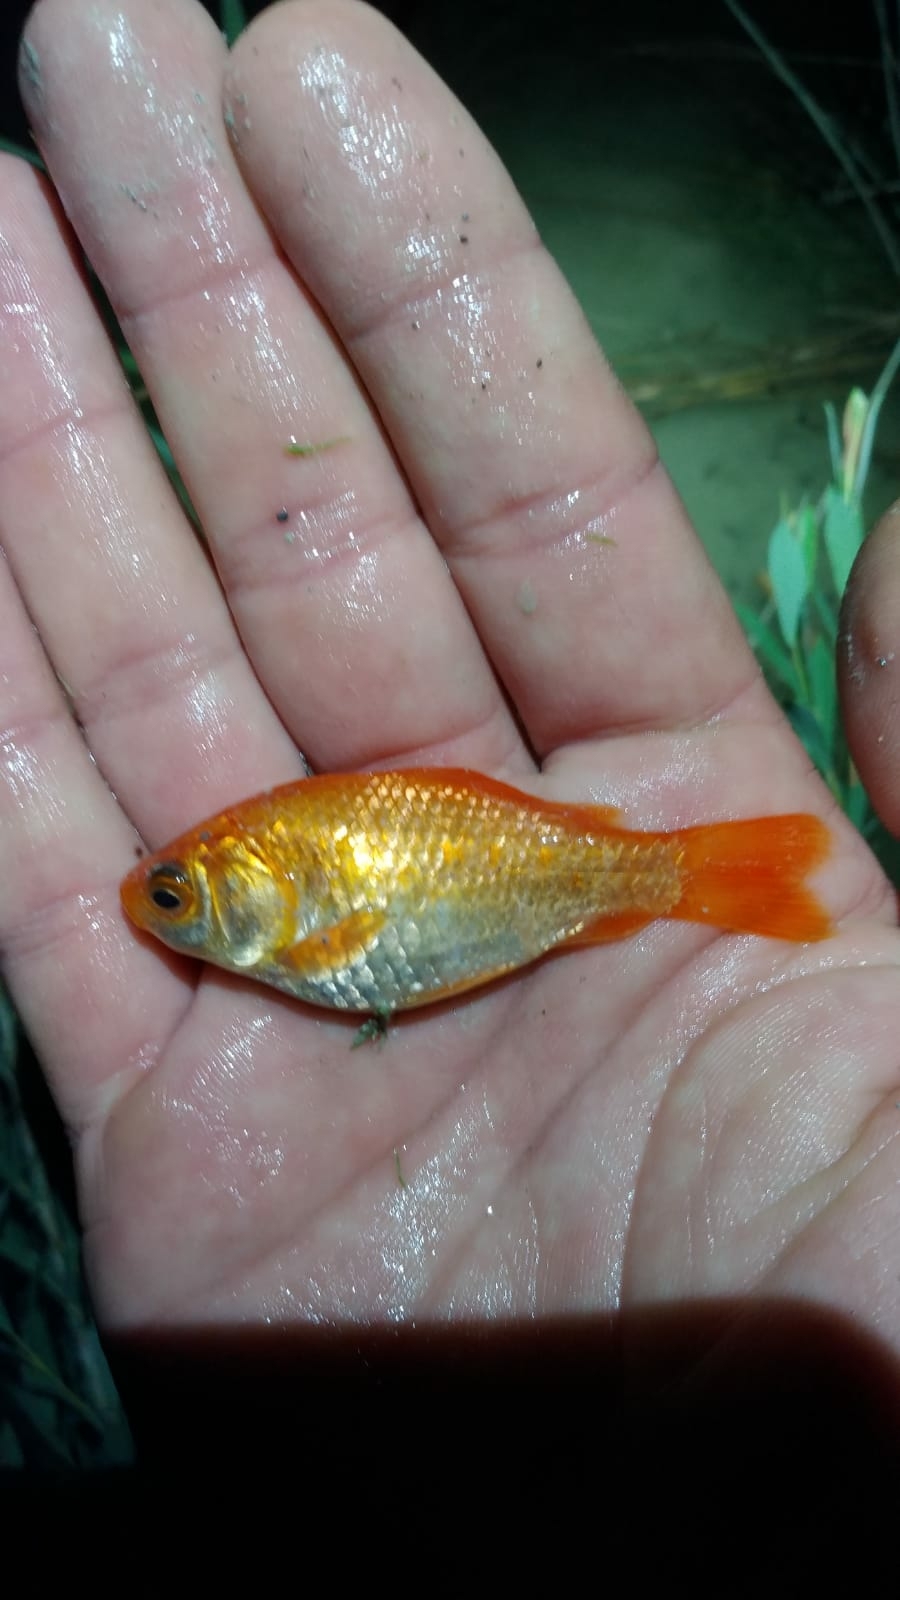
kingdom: Animalia
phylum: Chordata
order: Cypriniformes
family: Cyprinidae
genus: Carassius
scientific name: Carassius auratus
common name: Goldfish
